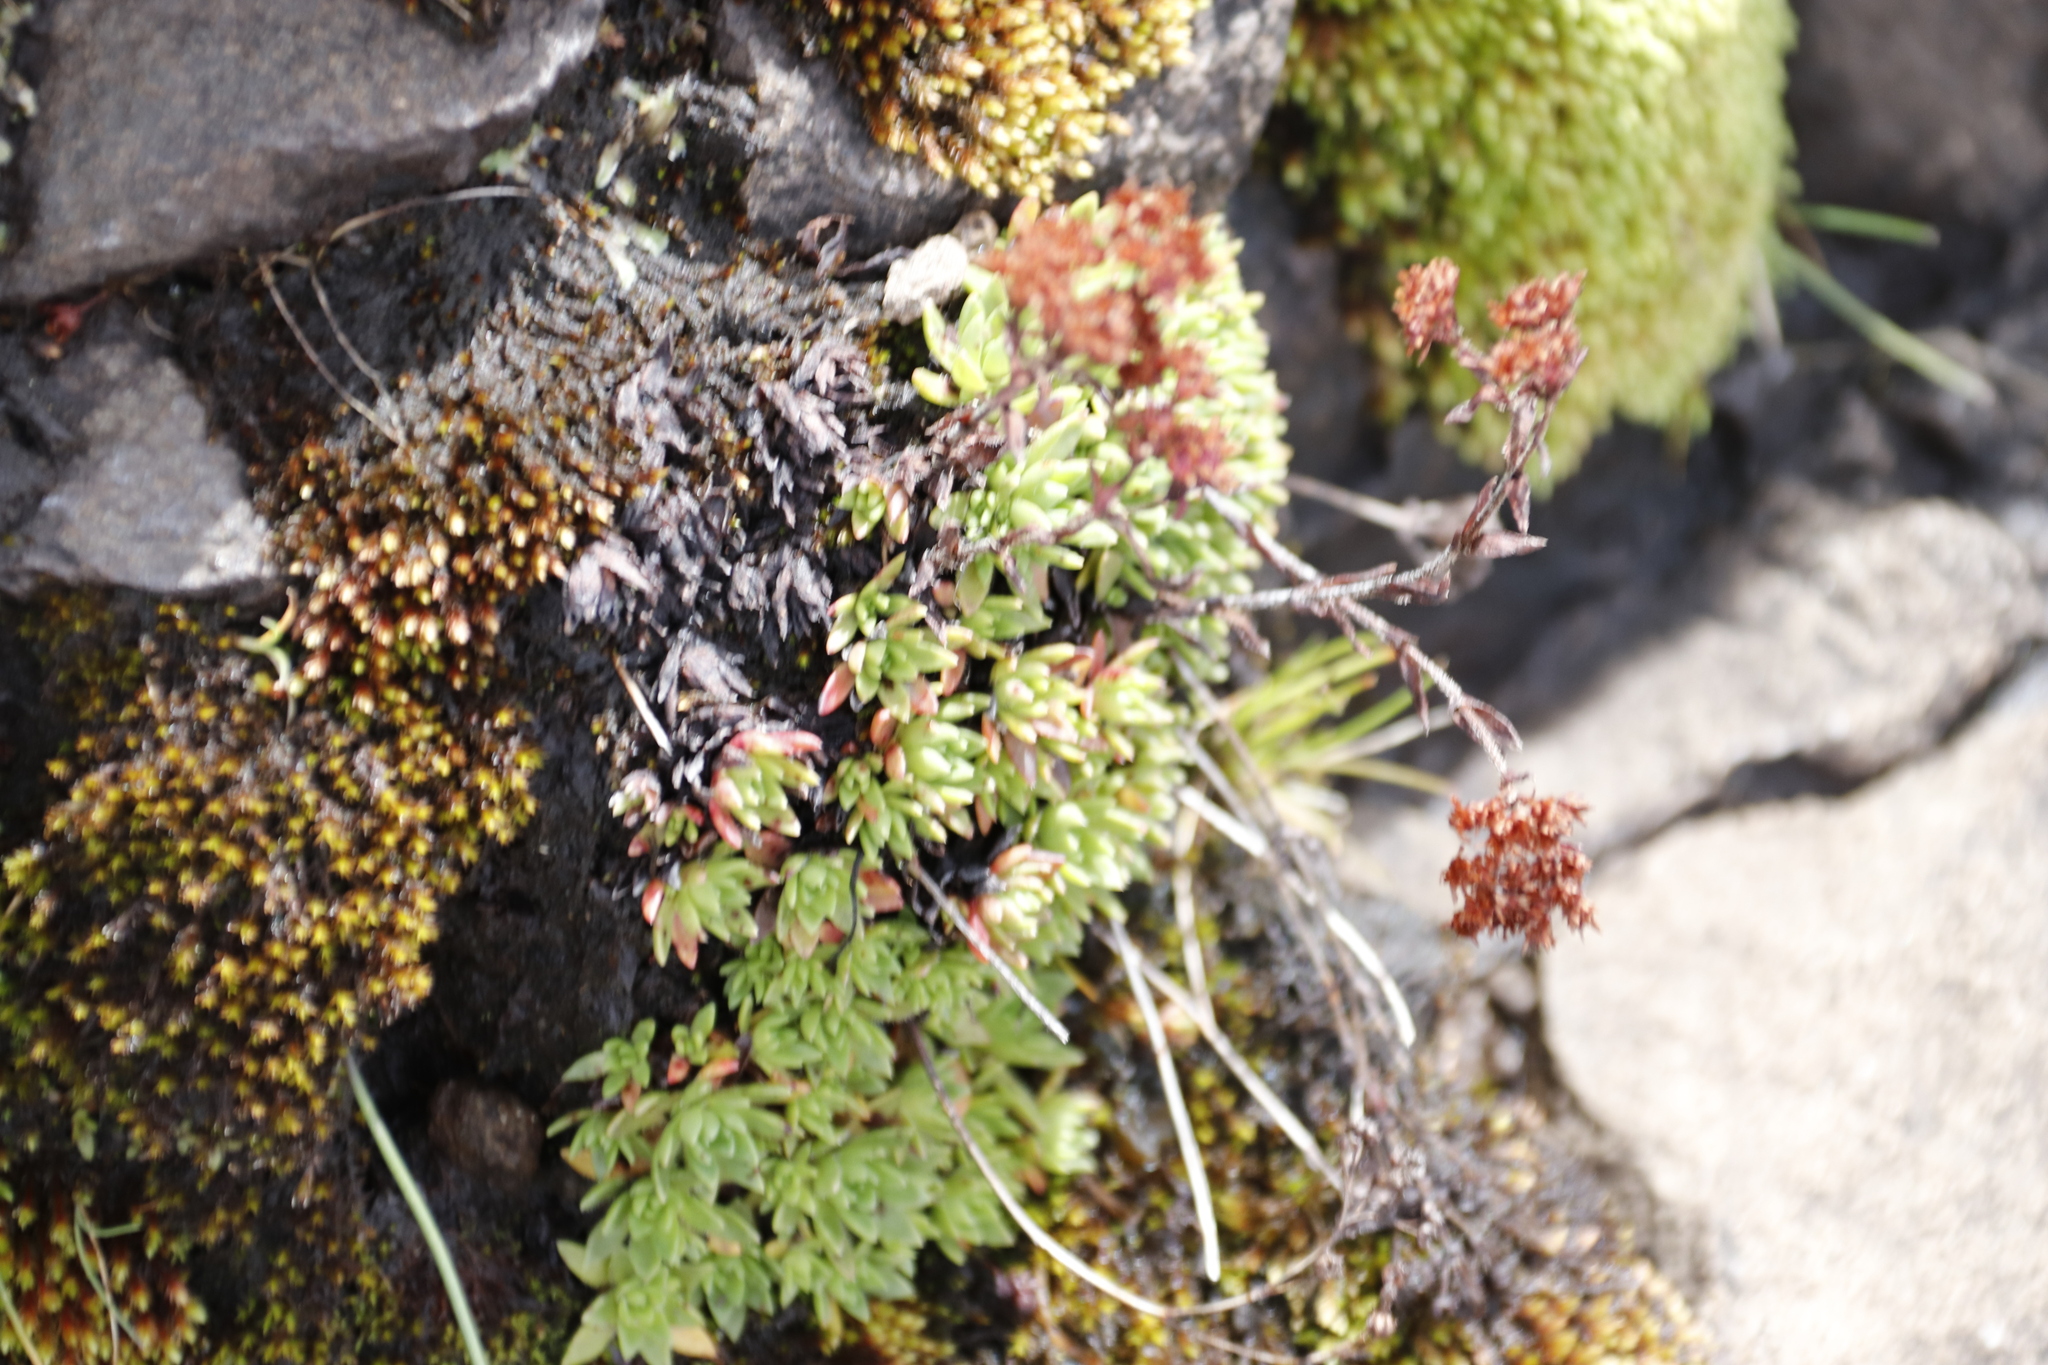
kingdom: Plantae
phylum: Tracheophyta
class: Magnoliopsida
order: Saxifragales
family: Crassulaceae
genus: Crassula
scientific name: Crassula setulosa
